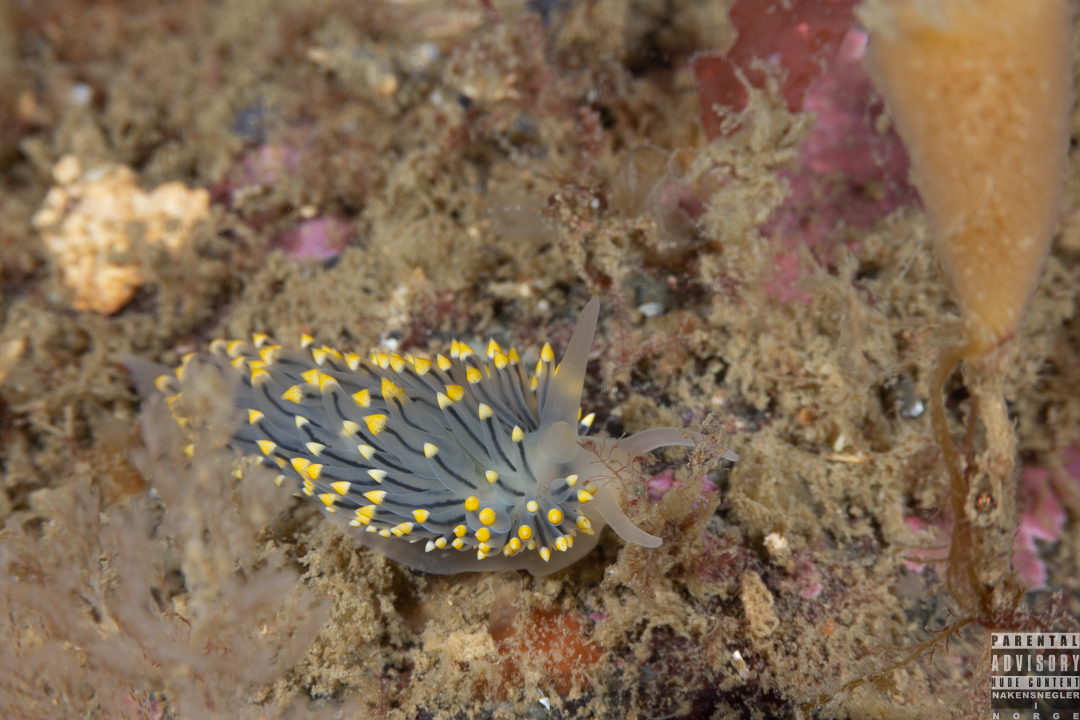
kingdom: Animalia
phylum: Mollusca
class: Gastropoda
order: Nudibranchia
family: Eubranchidae
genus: Eubranchus
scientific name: Eubranchus tricolor
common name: Painted balloon aeolis
